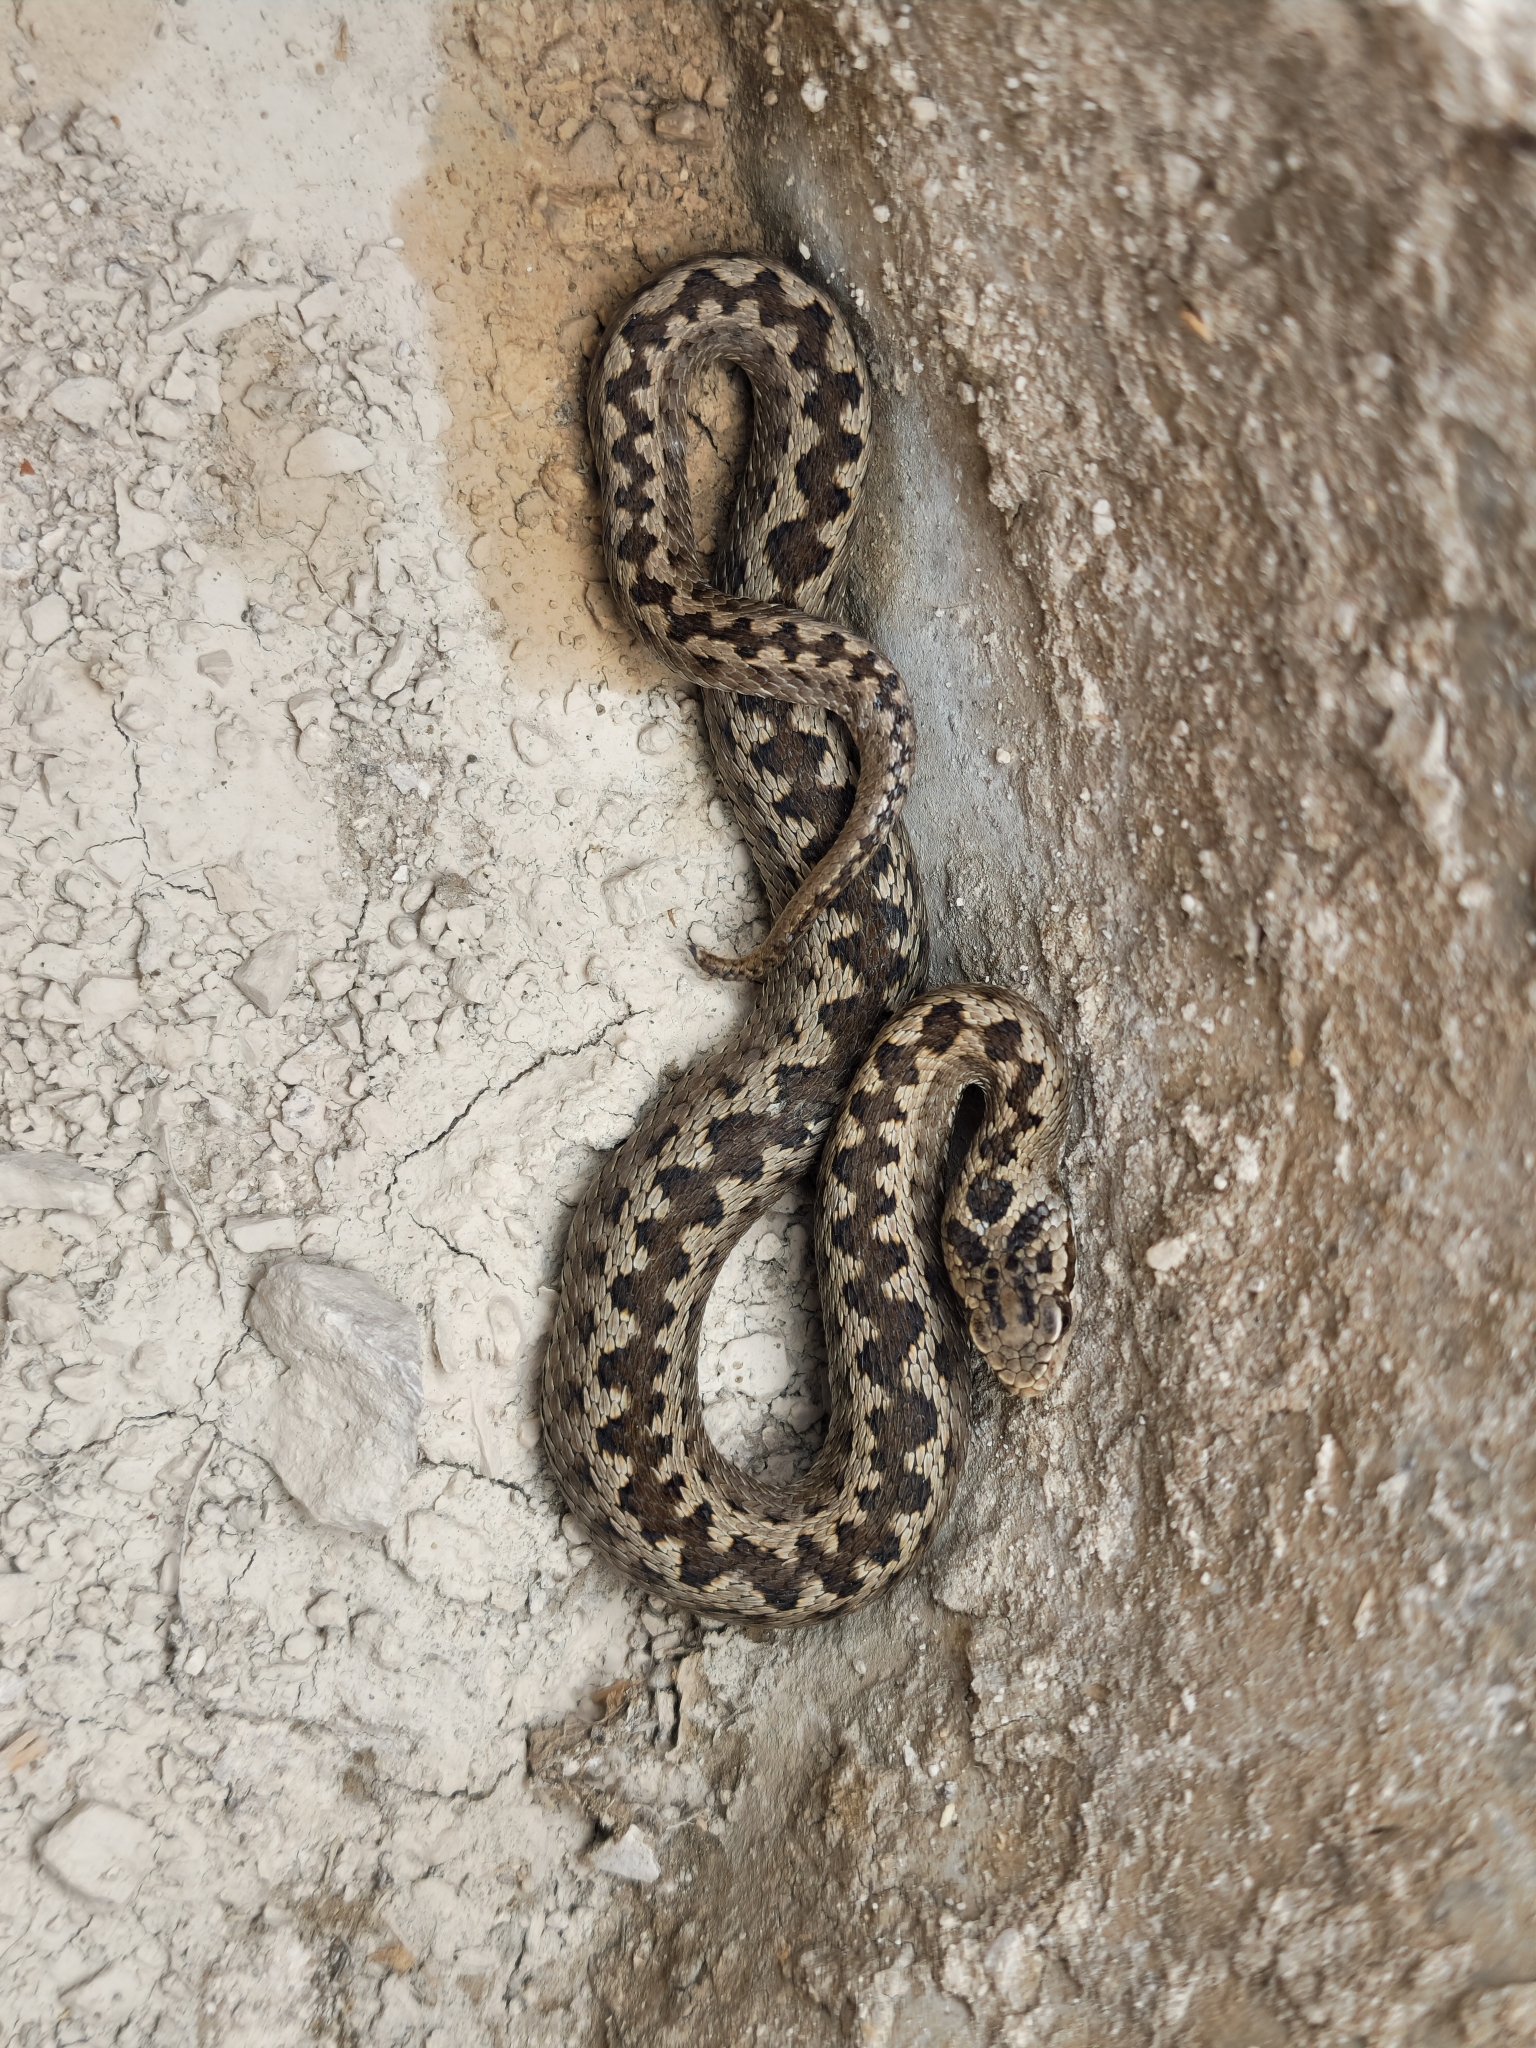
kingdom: Animalia
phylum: Chordata
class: Squamata
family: Viperidae
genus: Vipera
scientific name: Vipera lotievi
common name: Lotiev's viper
